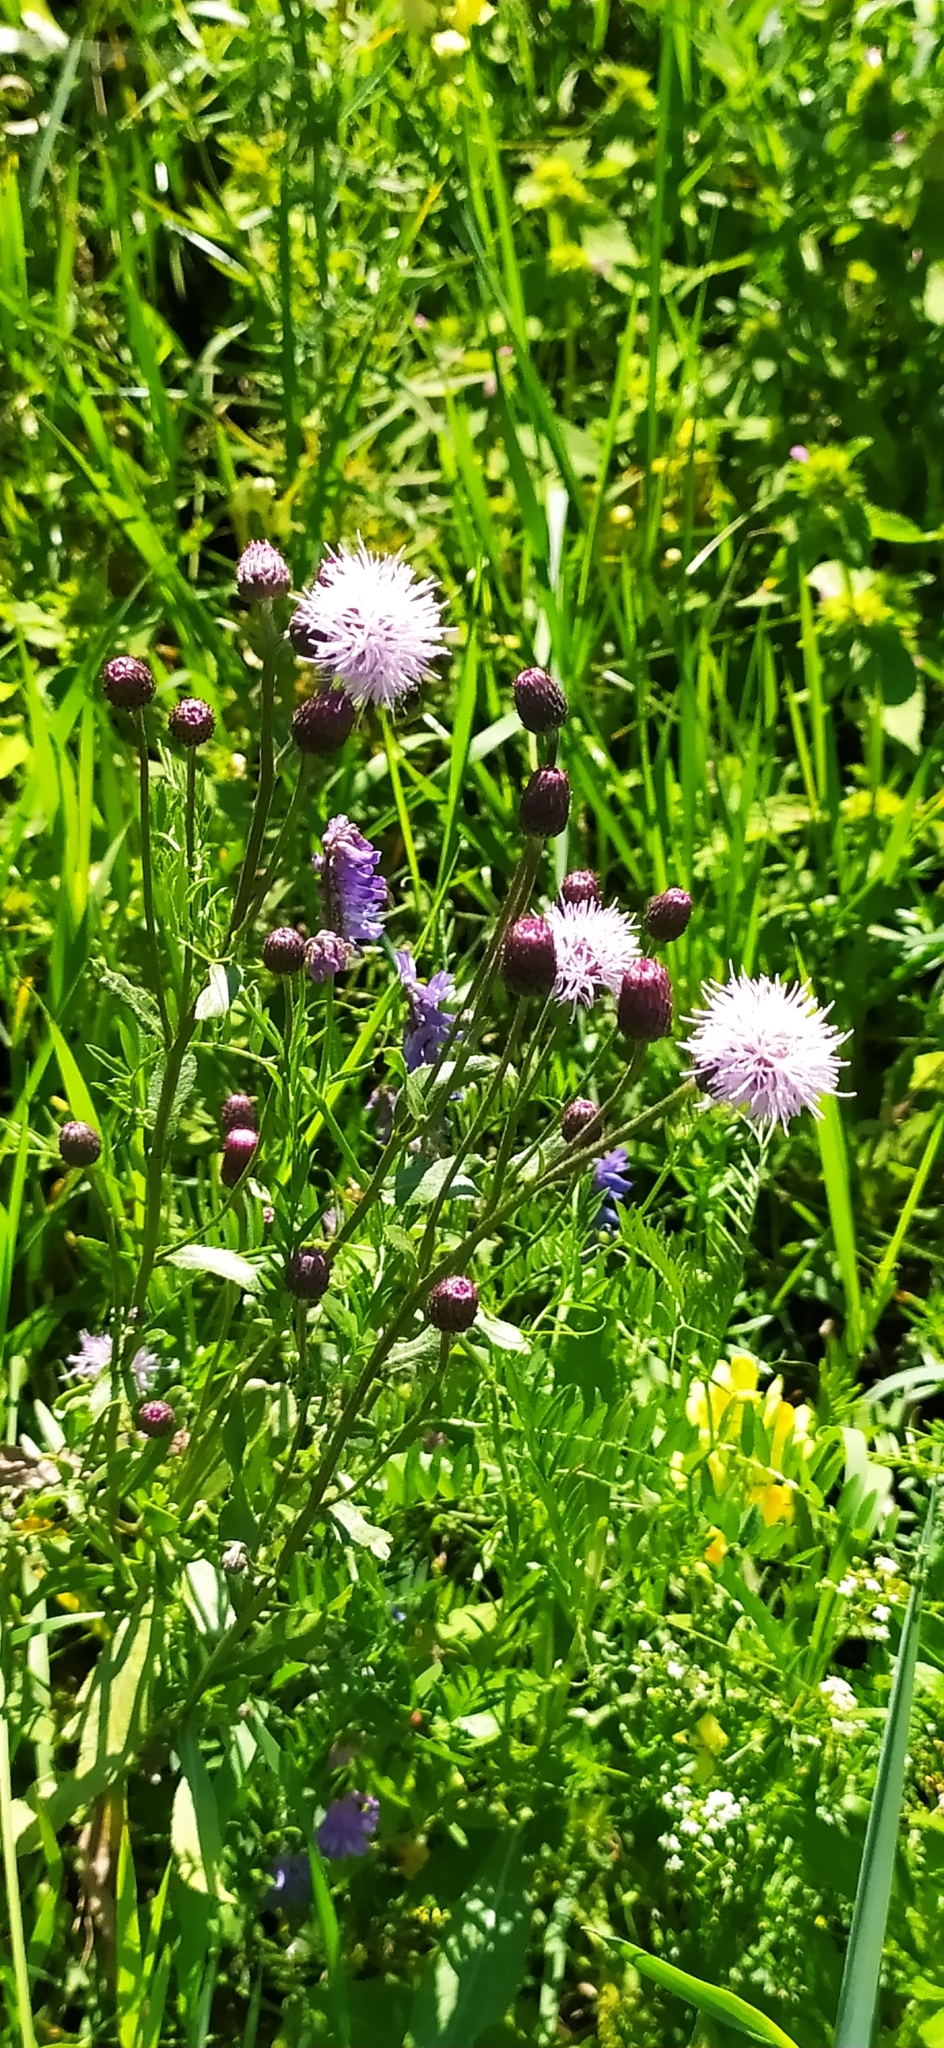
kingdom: Plantae
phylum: Tracheophyta
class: Magnoliopsida
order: Asterales
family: Asteraceae
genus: Cirsium
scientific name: Cirsium arvense
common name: Creeping thistle
